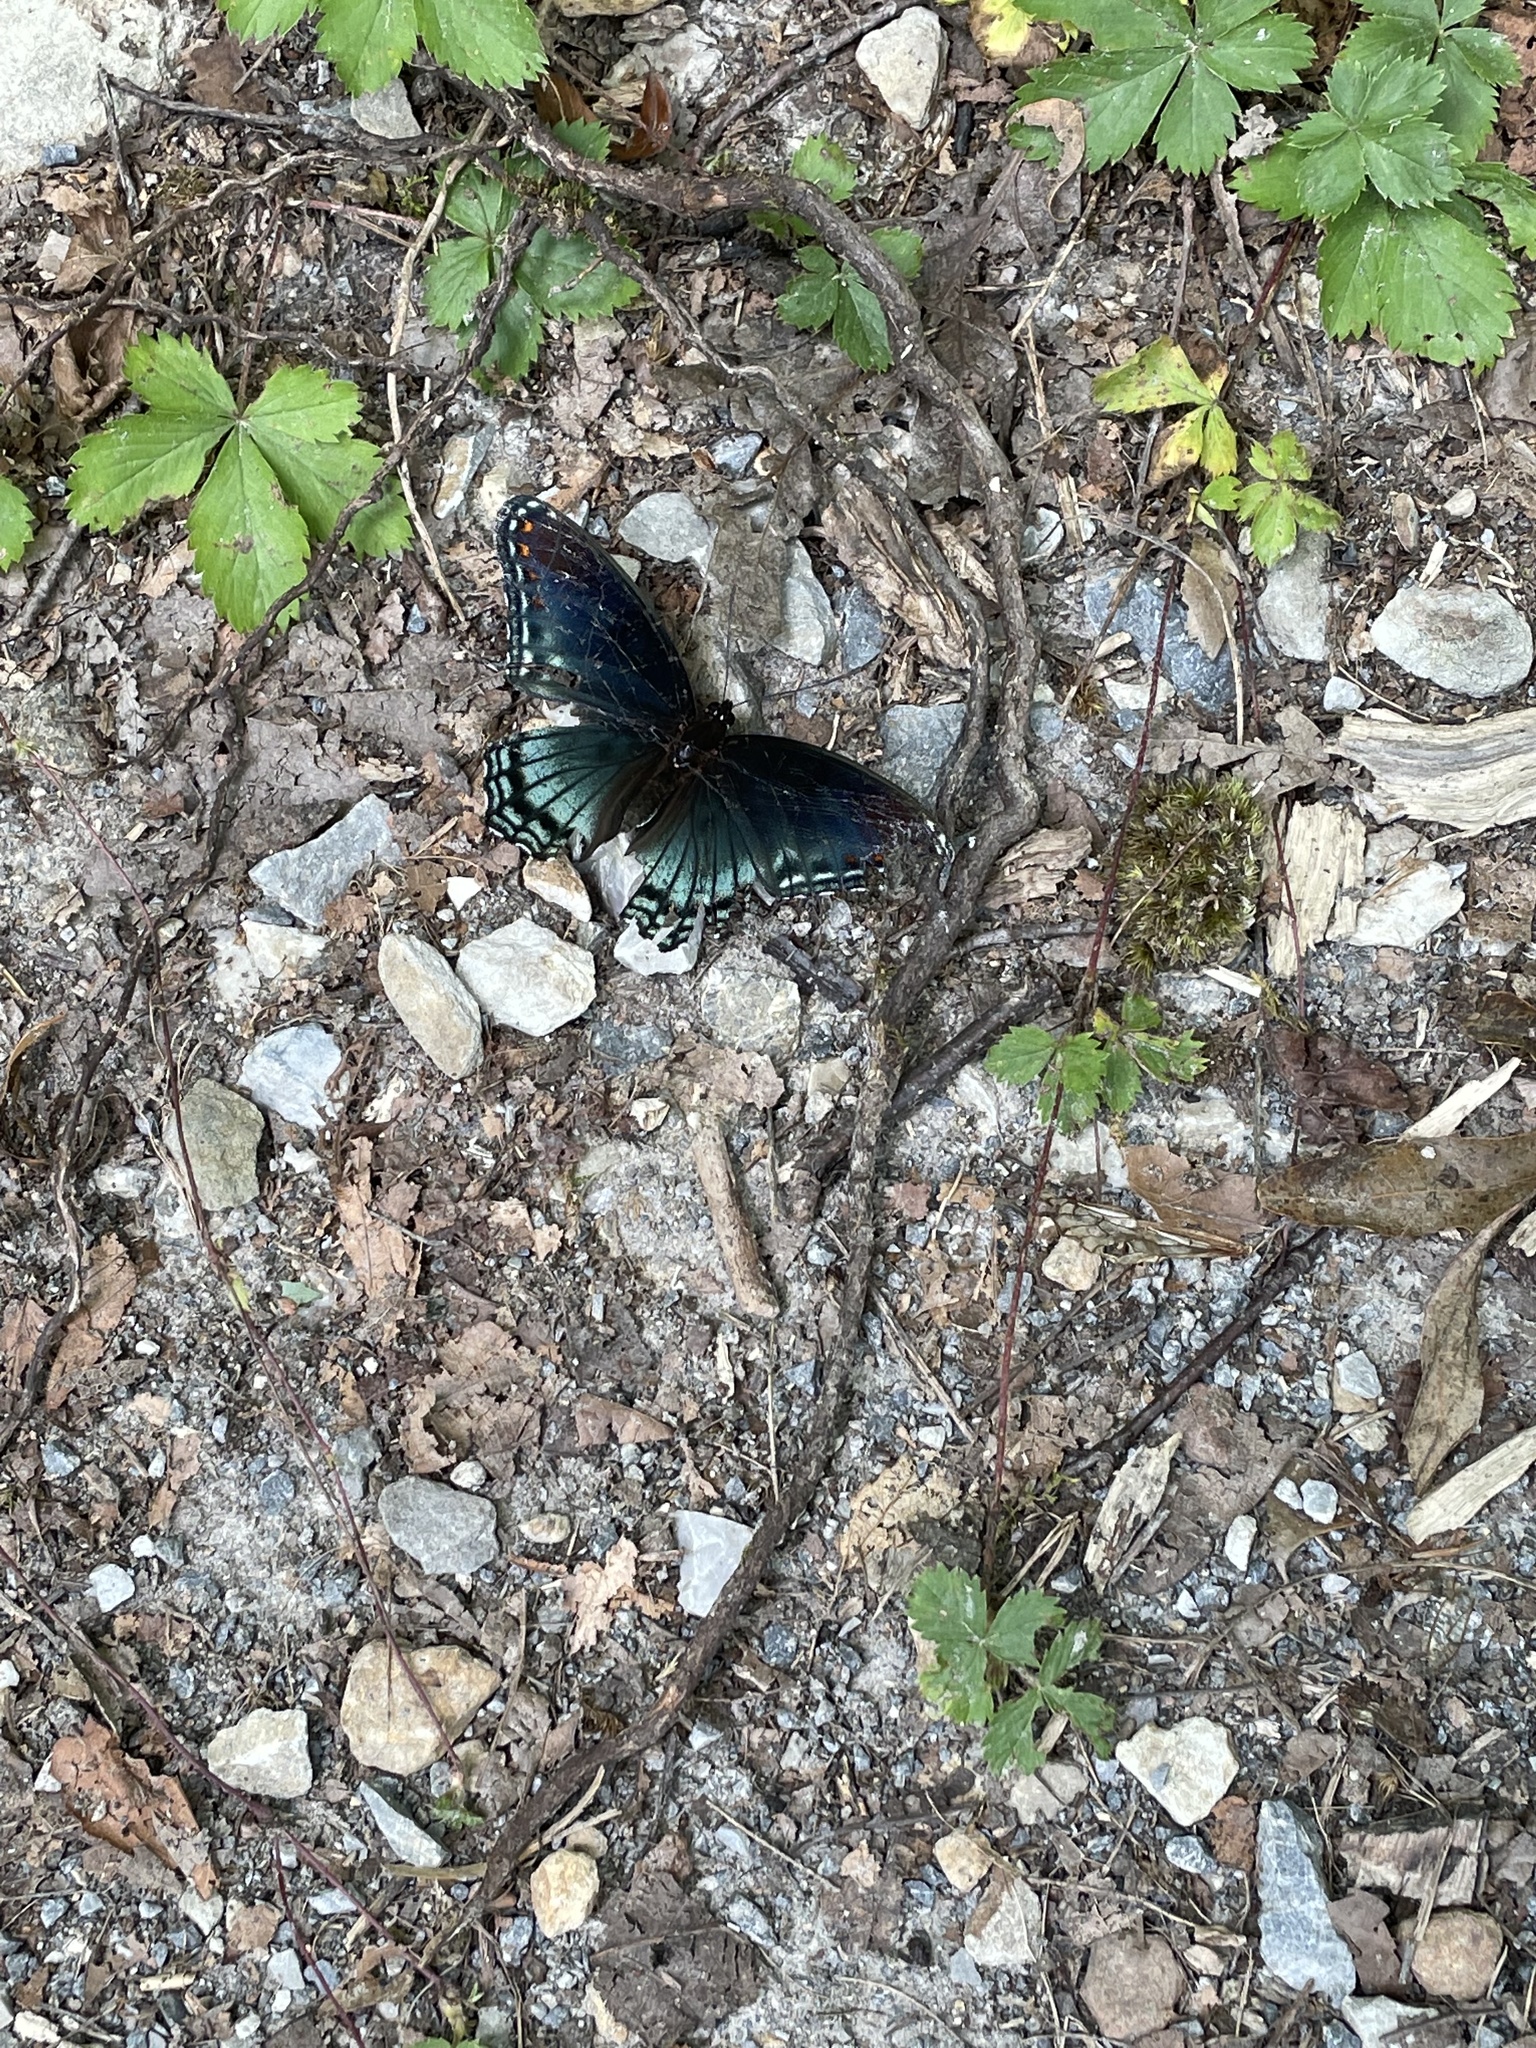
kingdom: Animalia
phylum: Arthropoda
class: Insecta
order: Lepidoptera
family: Nymphalidae
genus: Limenitis
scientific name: Limenitis astyanax
